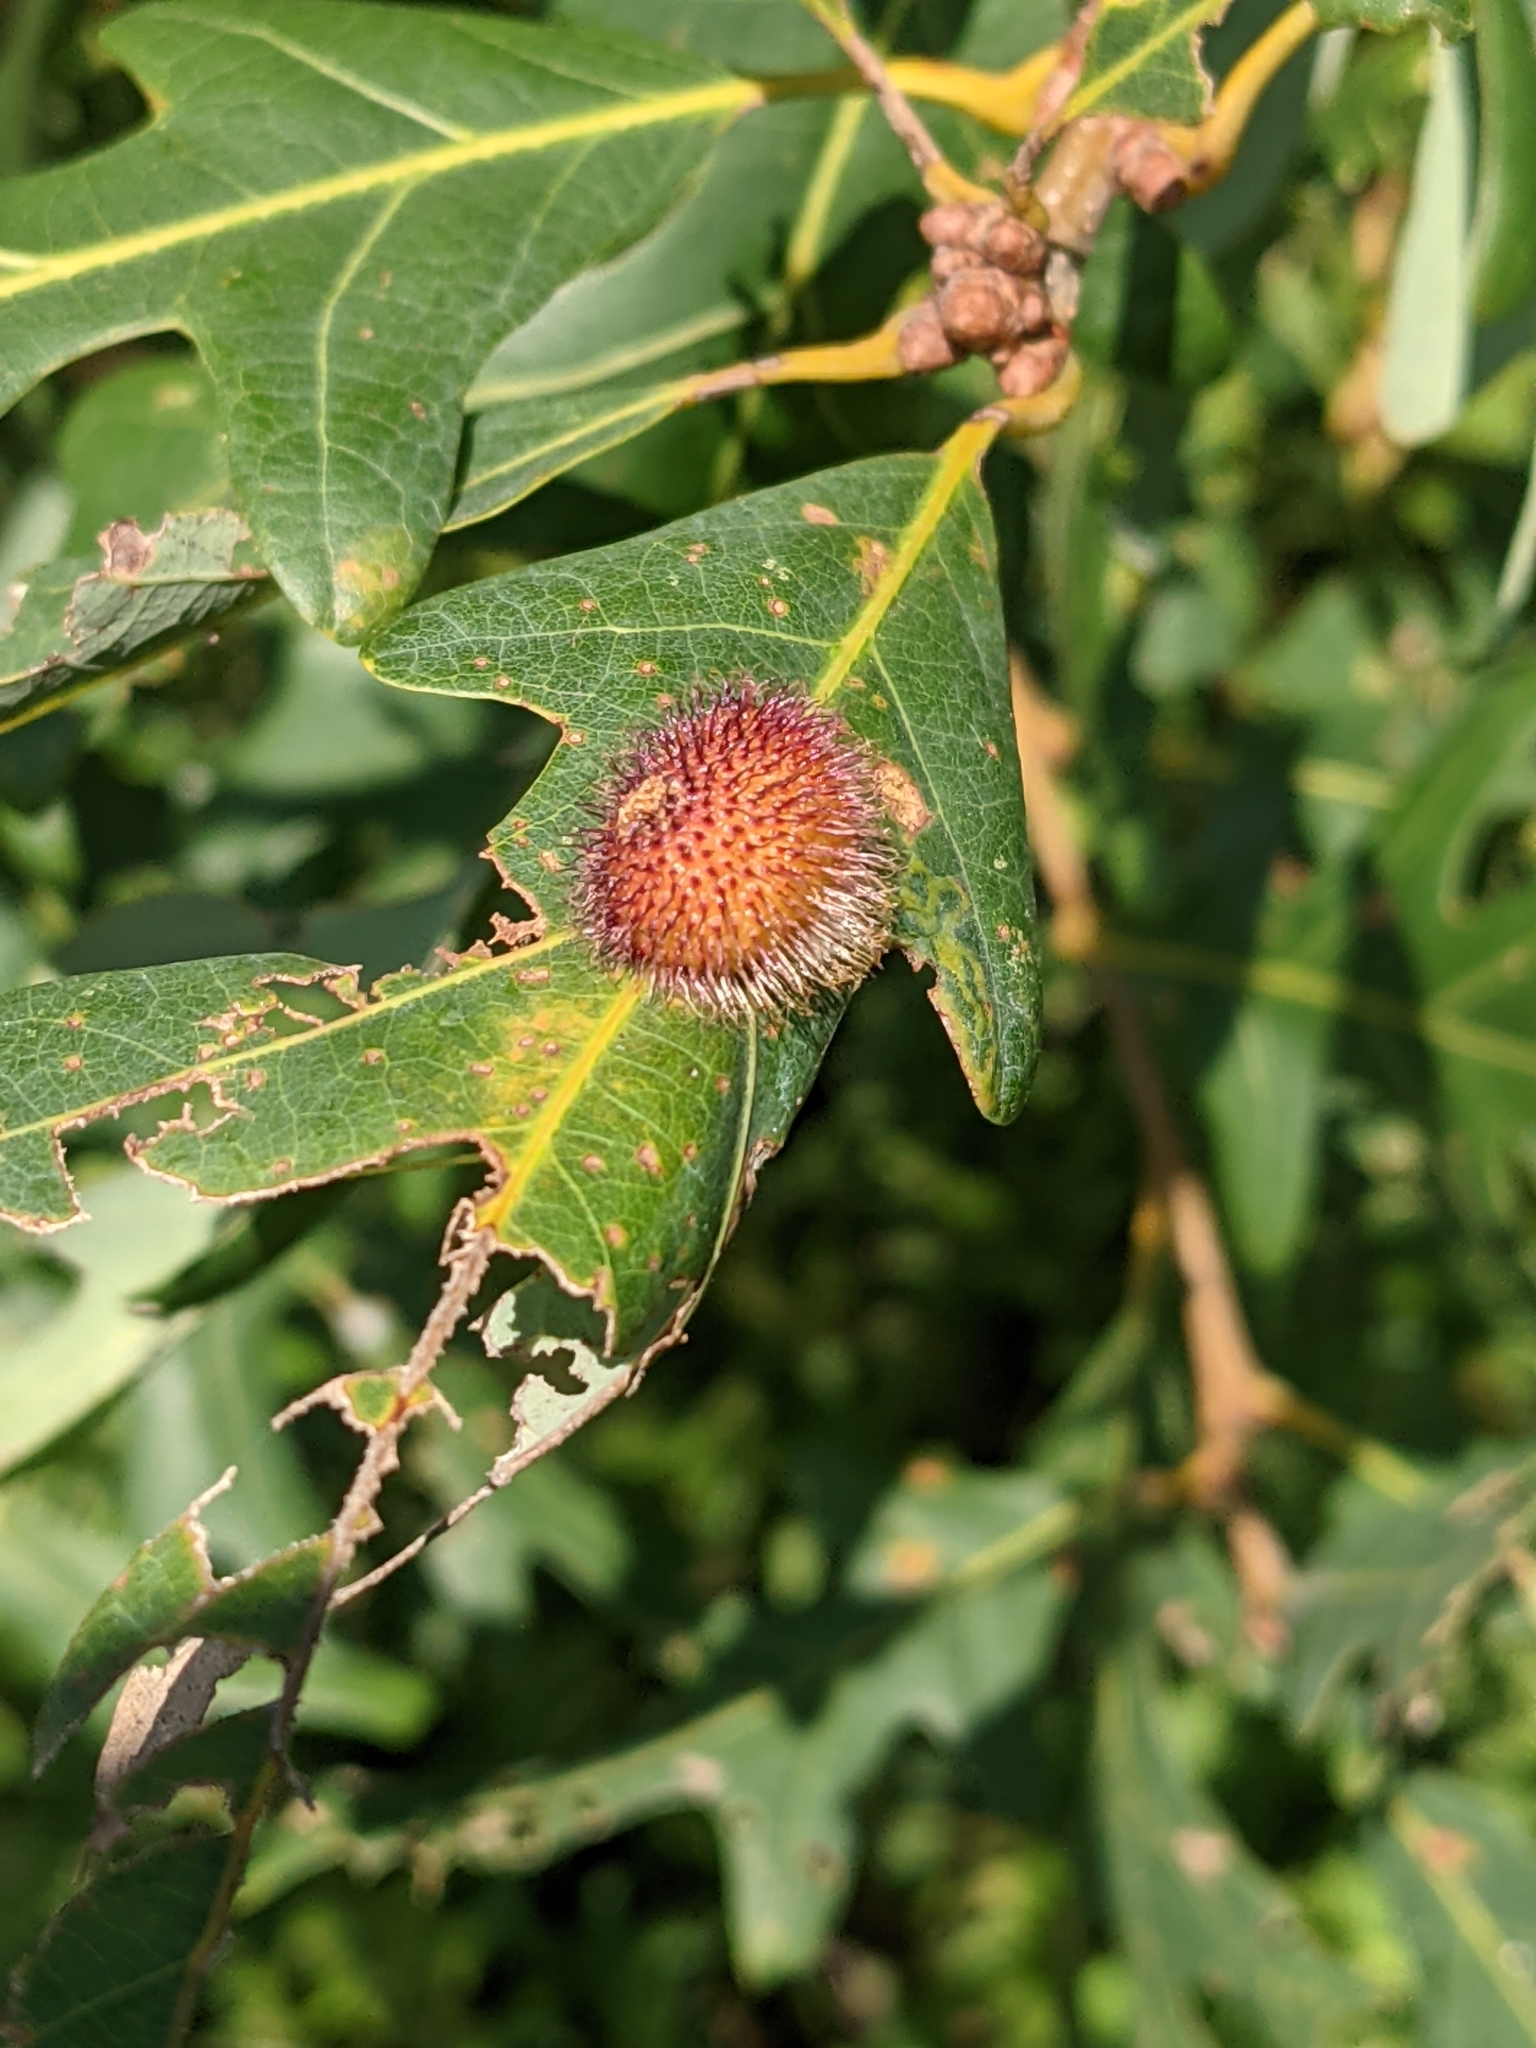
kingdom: Animalia
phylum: Arthropoda
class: Insecta
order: Hymenoptera
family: Cynipidae
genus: Acraspis
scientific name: Acraspis erinacei
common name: Hedgehog gall wasp
